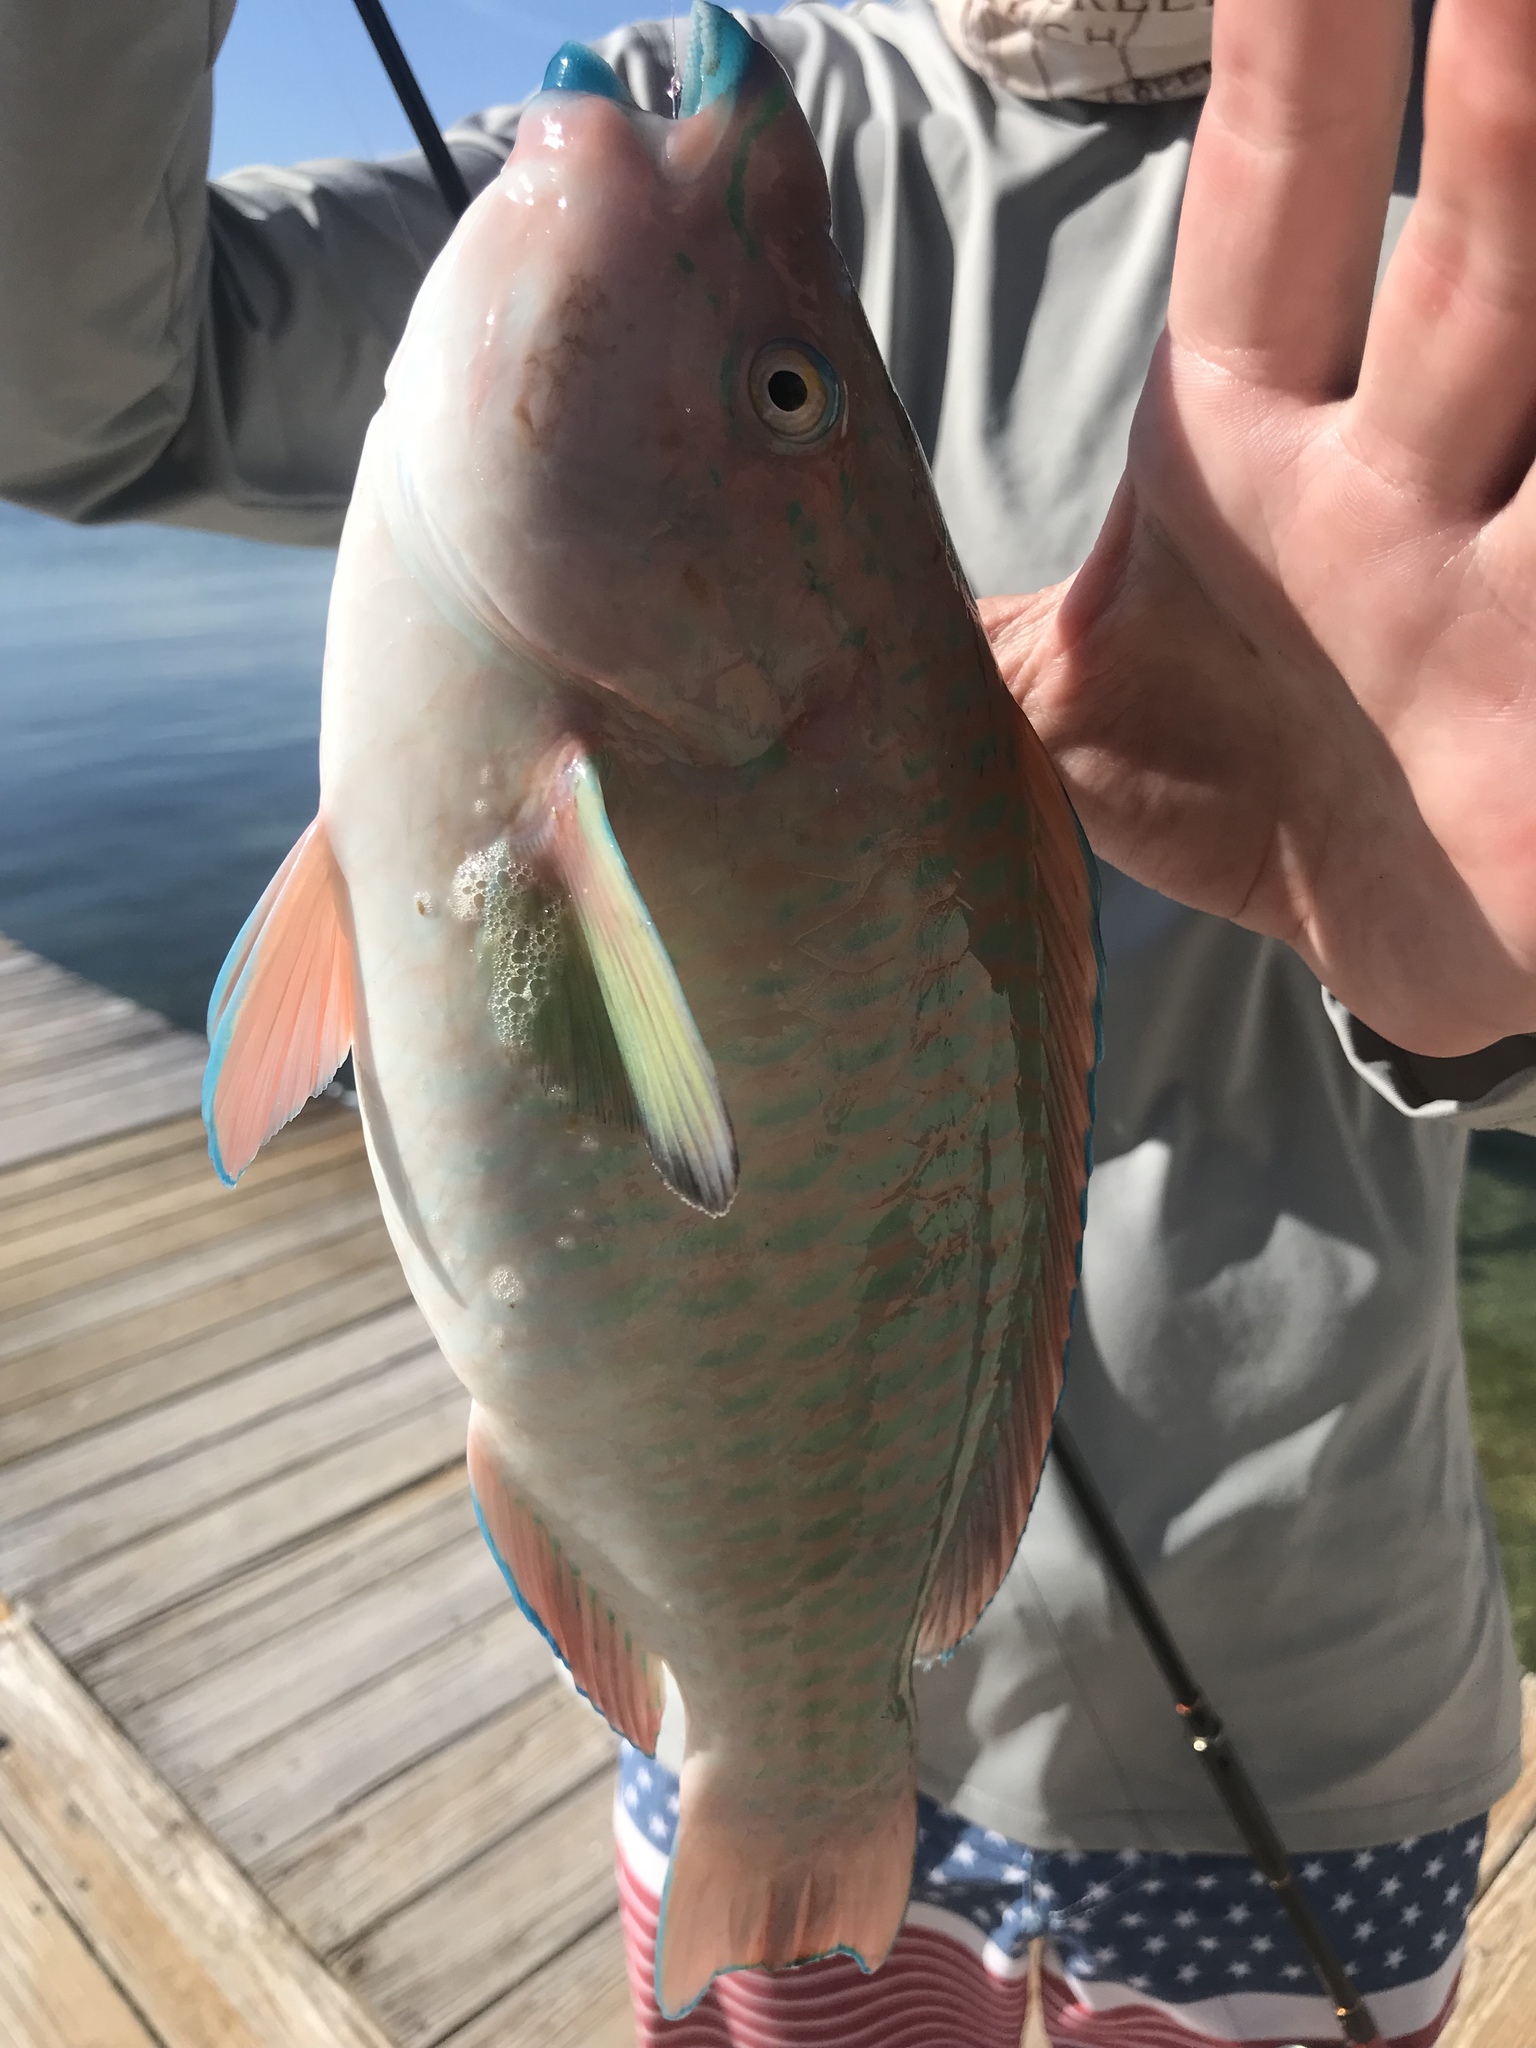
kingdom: Animalia
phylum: Chordata
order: Perciformes
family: Scaridae
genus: Scarus
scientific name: Scarus guacamaia
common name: Rainbow parrotfish
